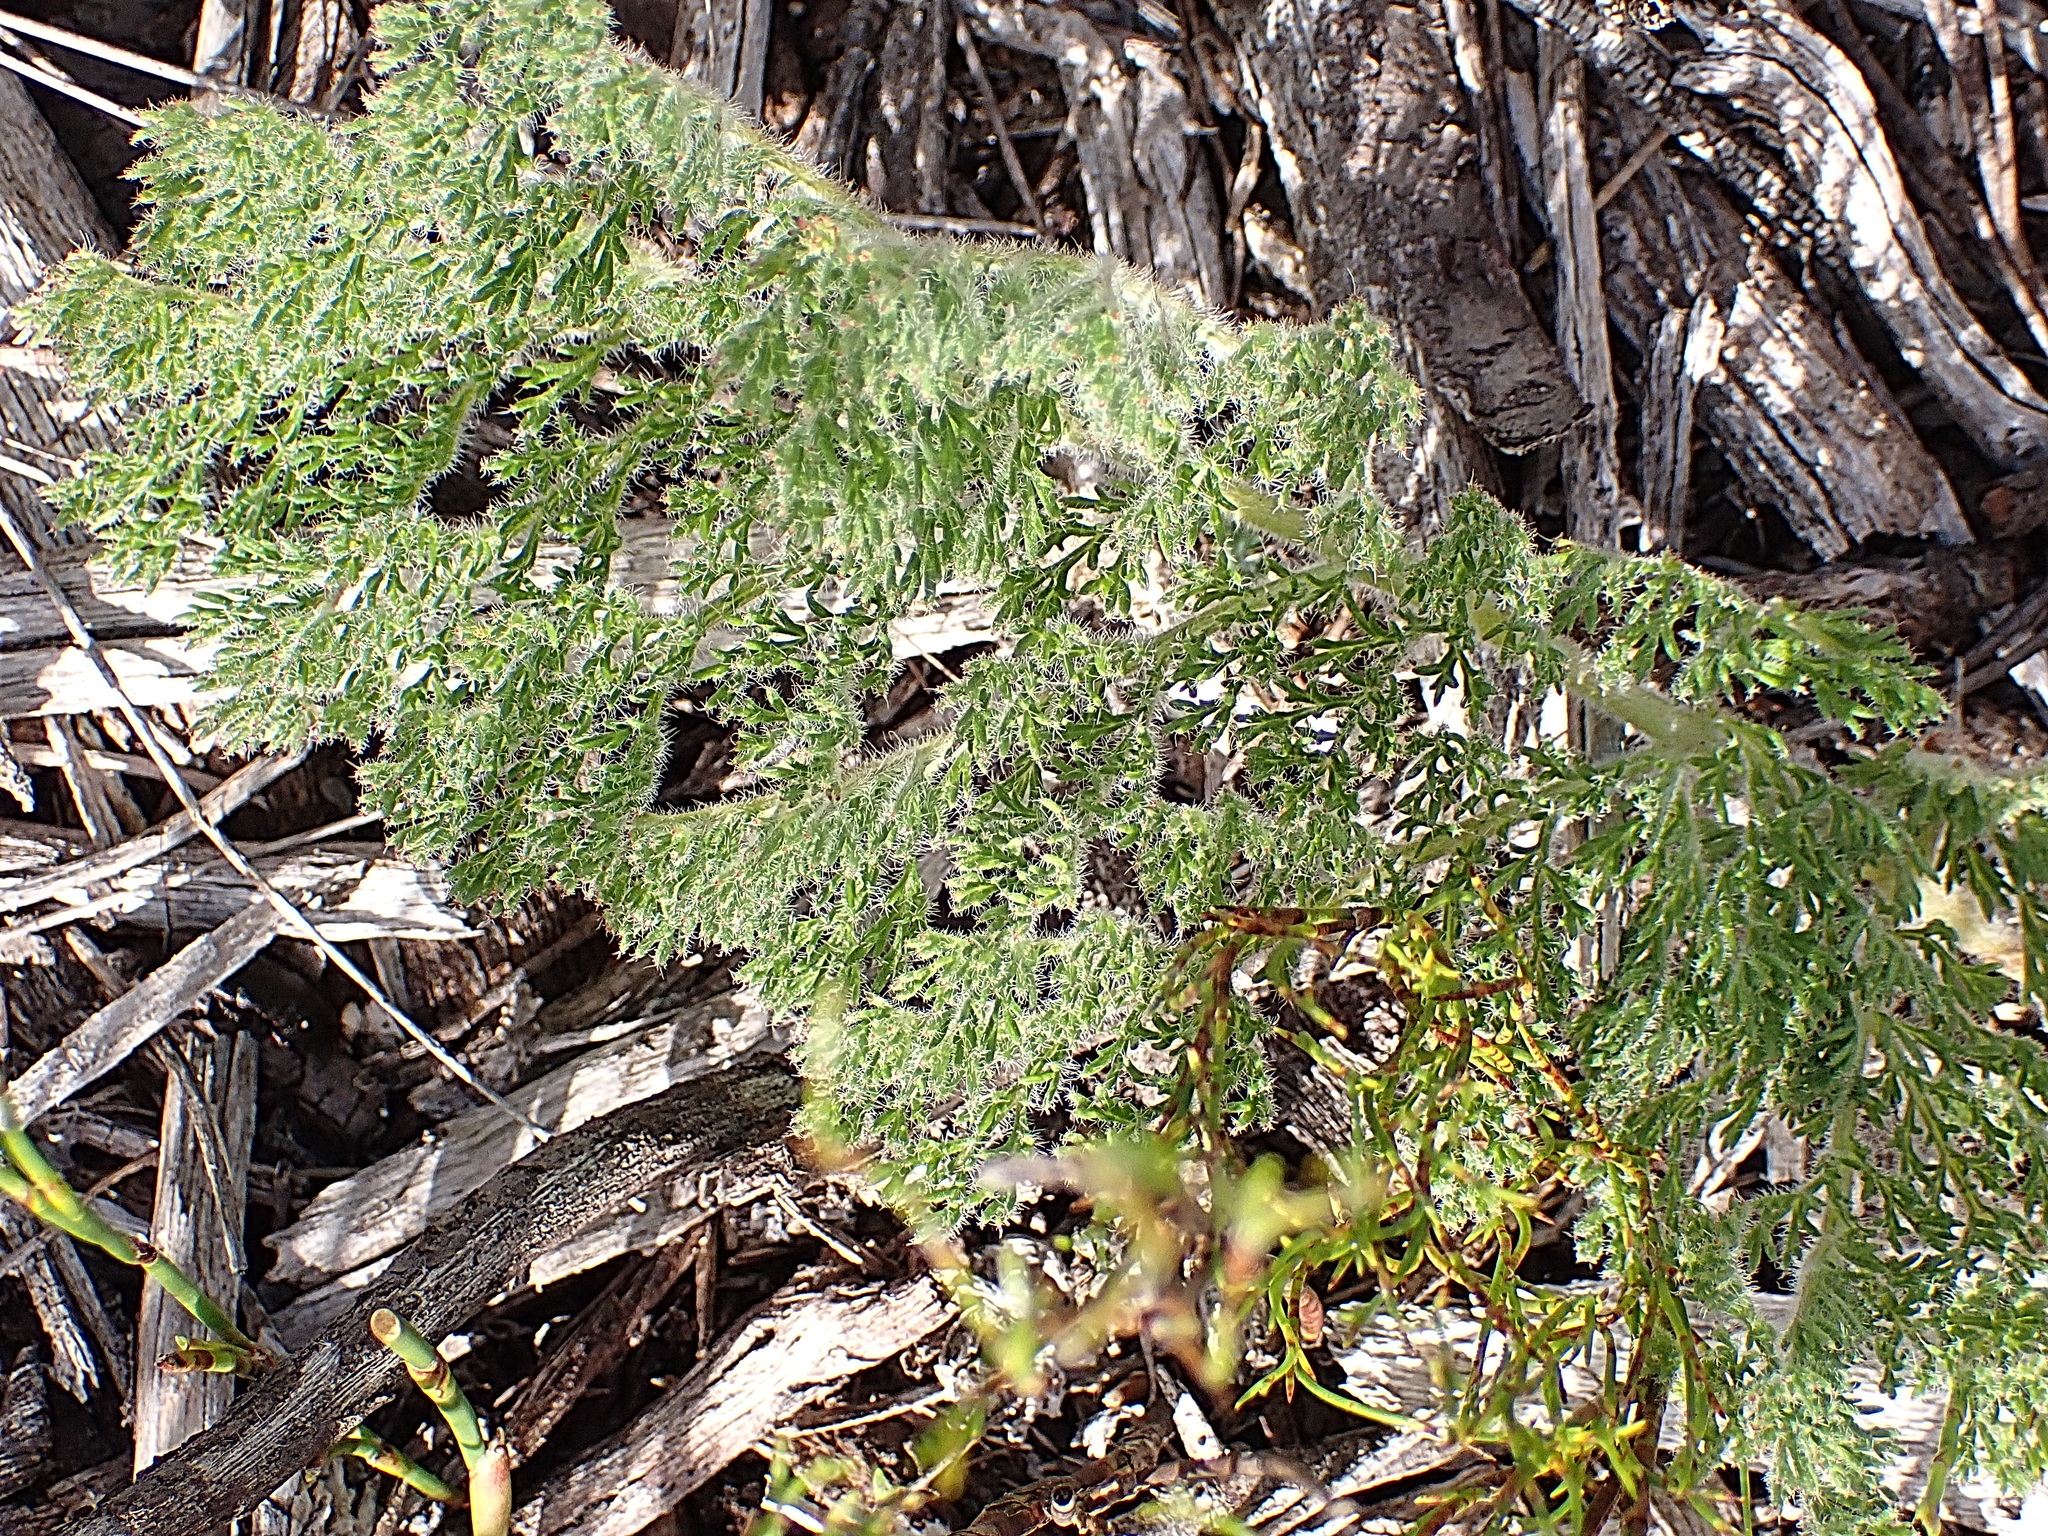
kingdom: Plantae
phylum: Tracheophyta
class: Magnoliopsida
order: Geraniales
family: Geraniaceae
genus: Pelargonium
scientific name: Pelargonium triste
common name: Night-scent pelargonium
